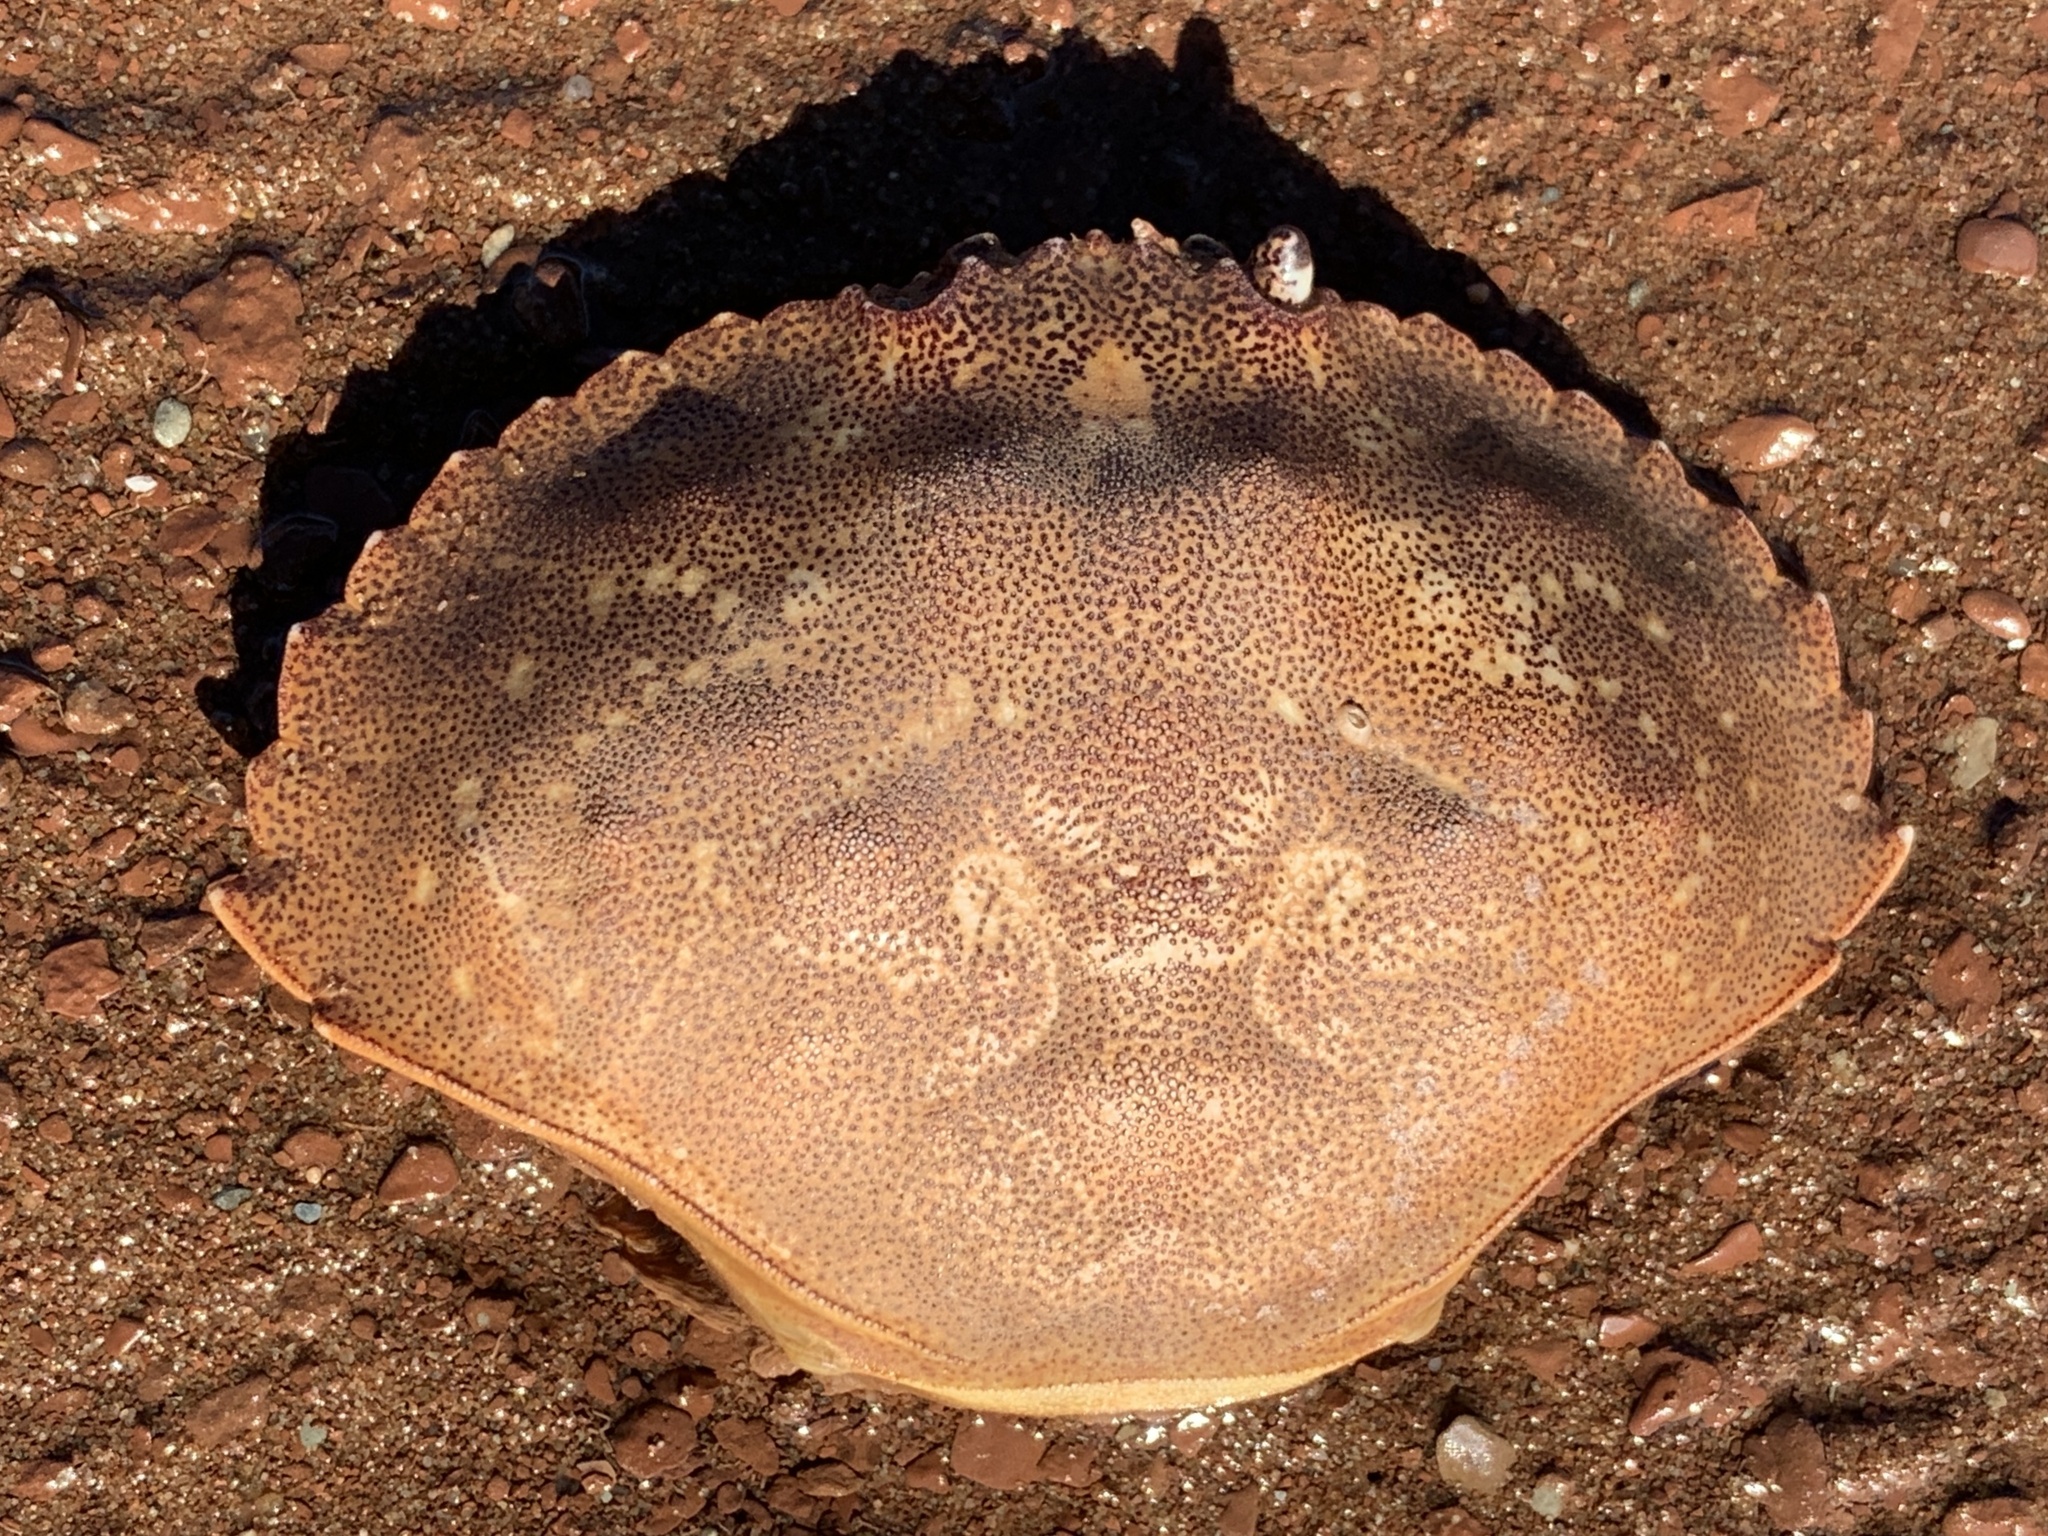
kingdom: Animalia
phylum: Arthropoda
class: Malacostraca
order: Decapoda
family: Cancridae
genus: Cancer
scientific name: Cancer irroratus
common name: Atlantic rock crab
